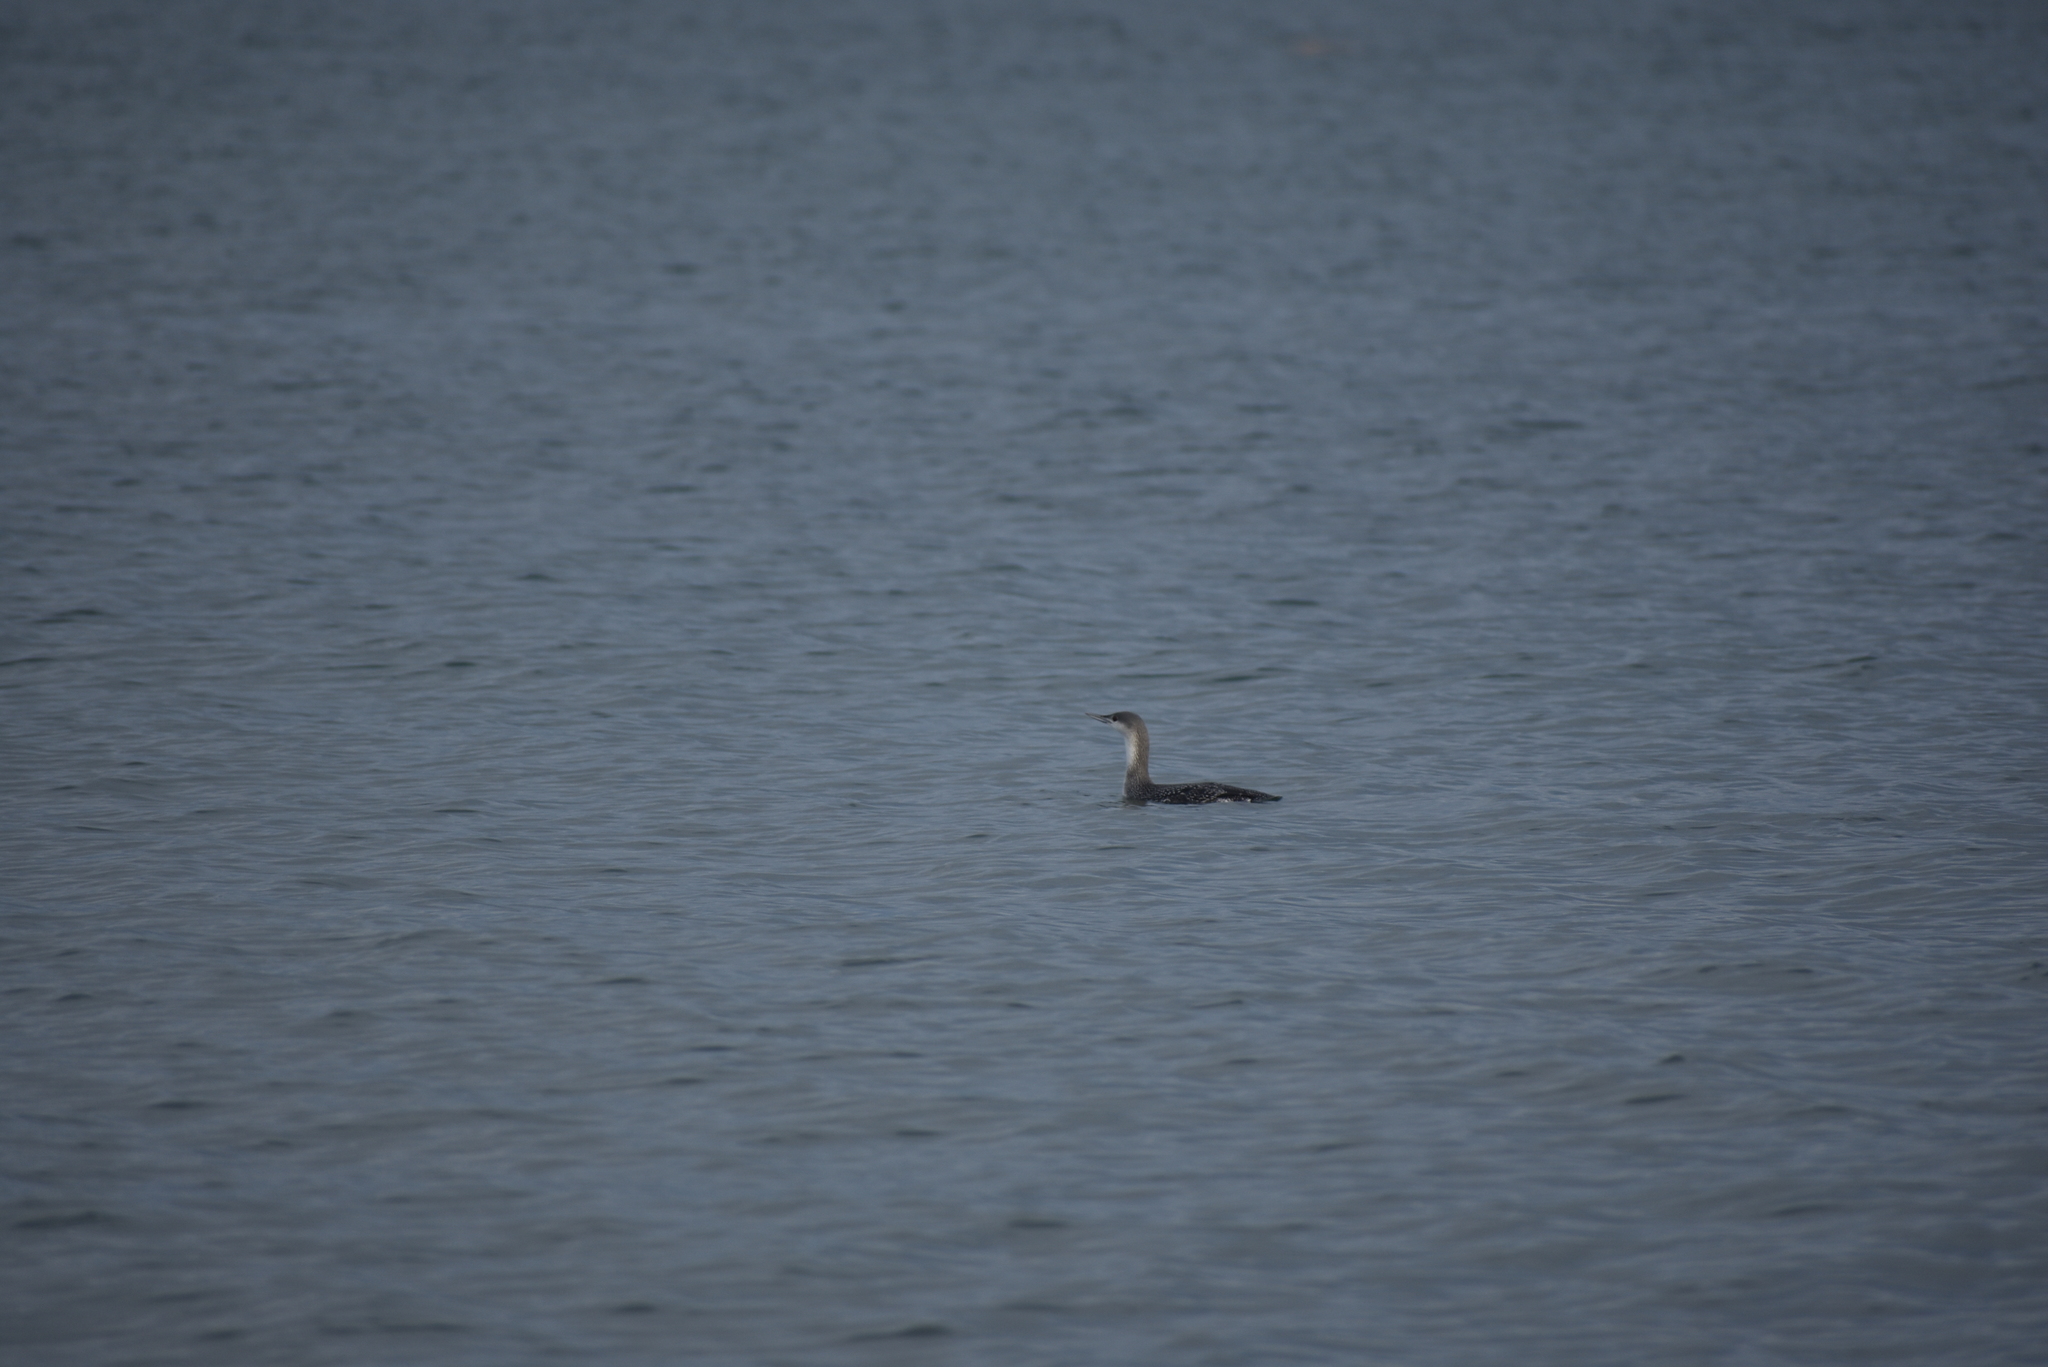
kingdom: Animalia
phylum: Chordata
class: Aves
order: Gaviiformes
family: Gaviidae
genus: Gavia
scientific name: Gavia stellata
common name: Red-throated loon
